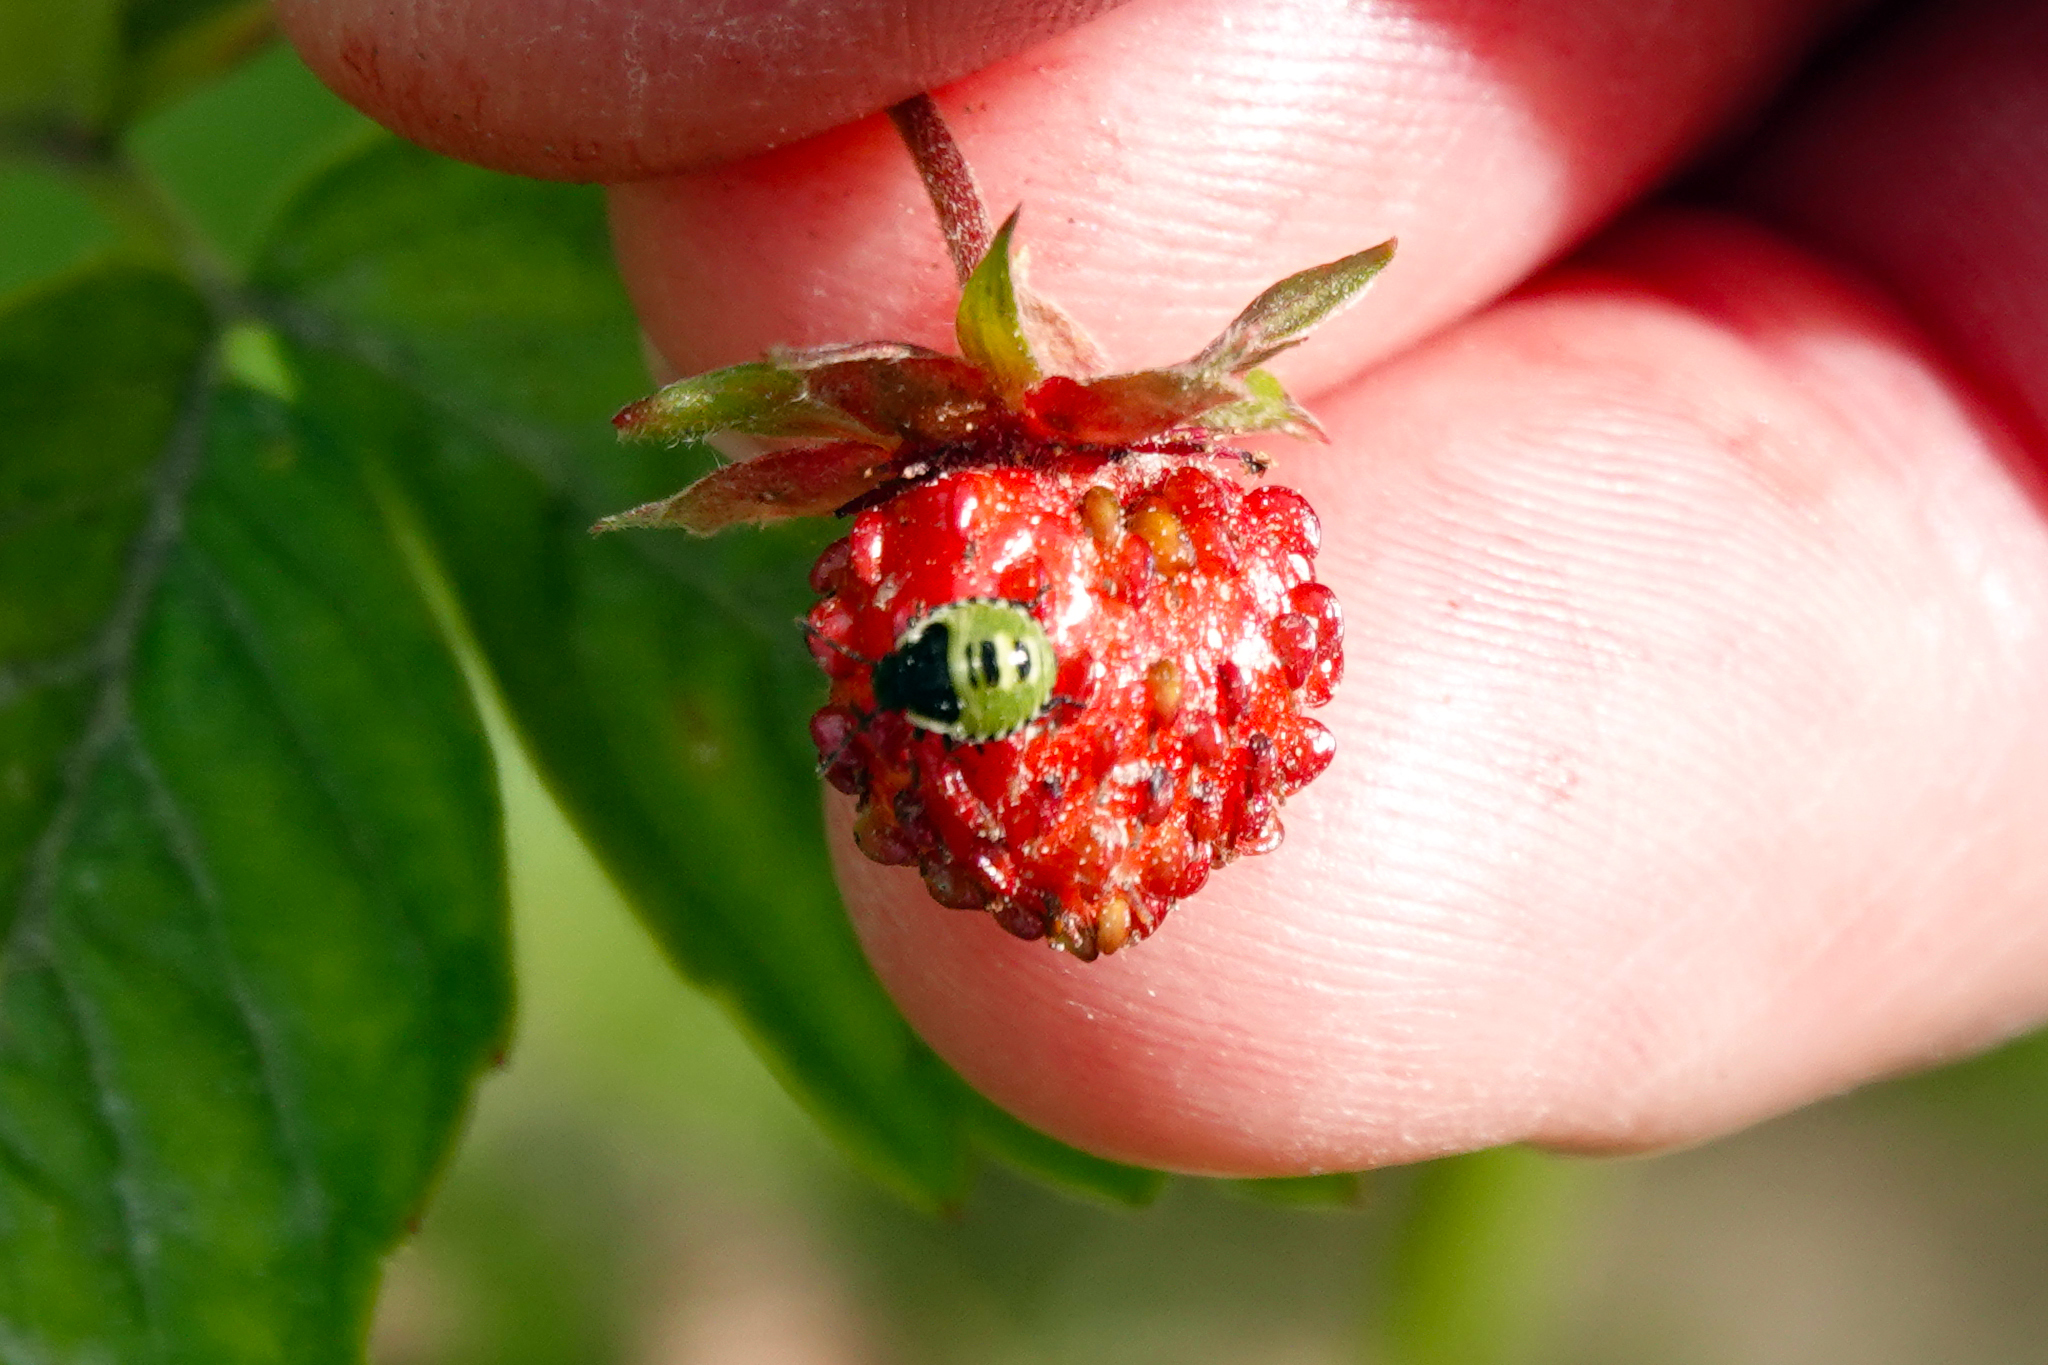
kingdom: Plantae
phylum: Tracheophyta
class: Magnoliopsida
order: Rosales
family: Rosaceae
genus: Fragaria
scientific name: Fragaria vesca
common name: Wild strawberry
